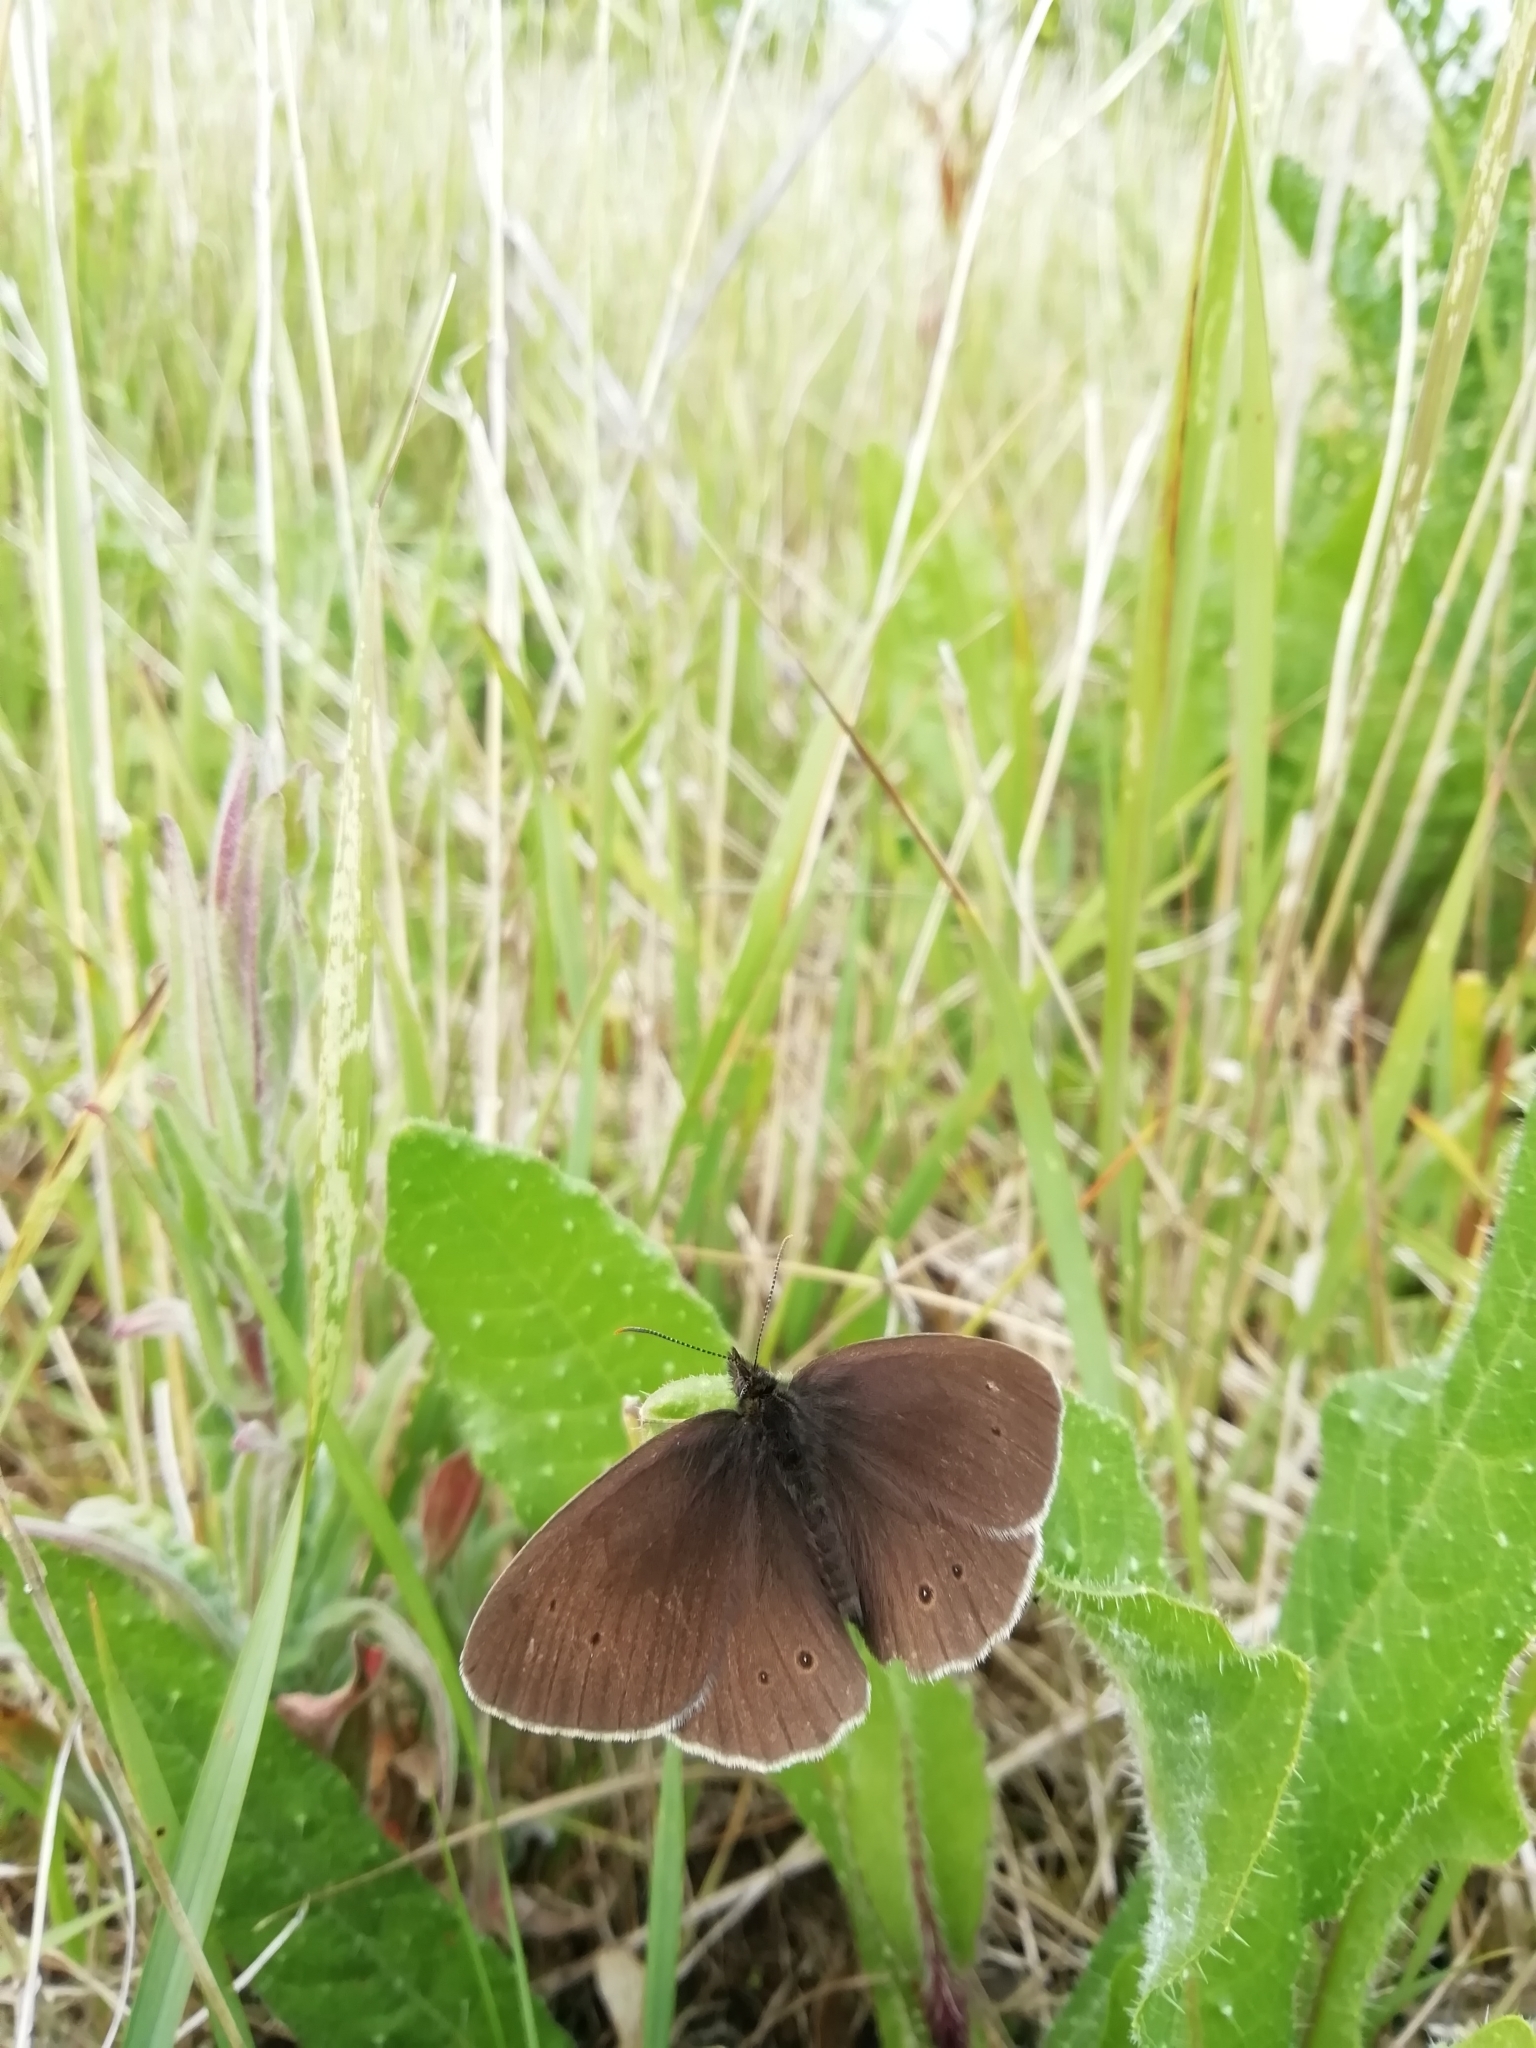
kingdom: Animalia
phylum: Arthropoda
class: Insecta
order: Lepidoptera
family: Nymphalidae
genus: Aphantopus
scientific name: Aphantopus hyperantus
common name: Ringlet
